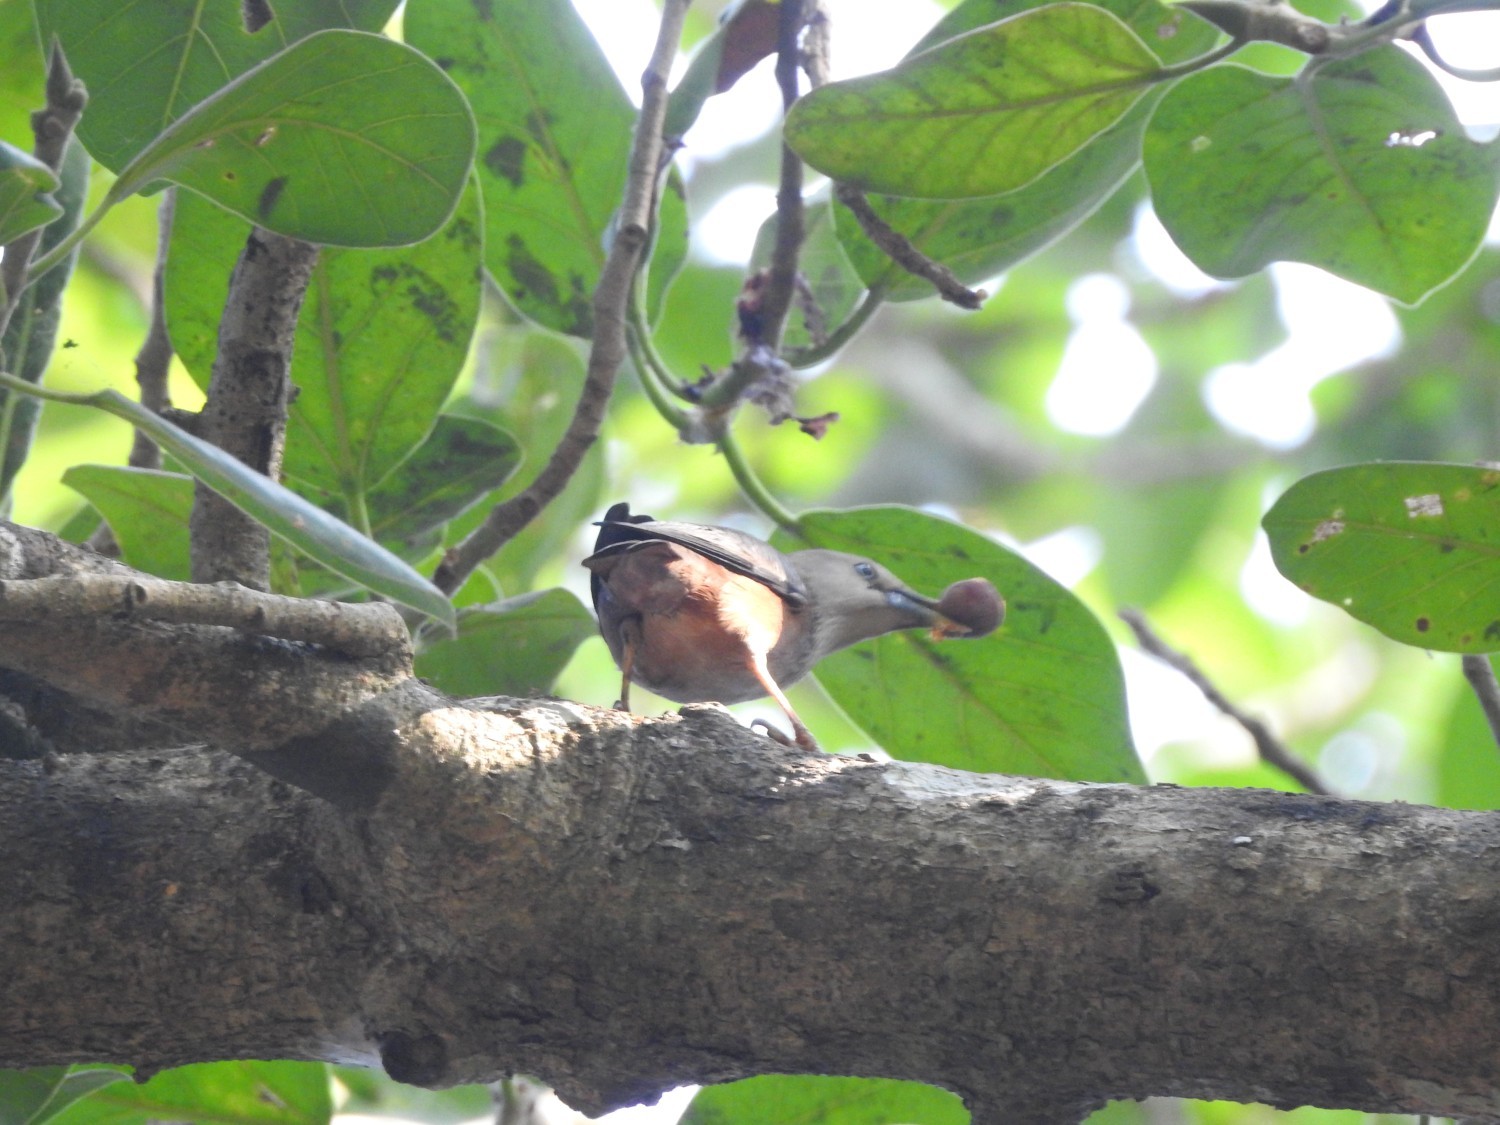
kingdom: Animalia
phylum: Chordata
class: Aves
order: Passeriformes
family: Sturnidae
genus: Sturnia
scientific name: Sturnia malabarica
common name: Chestnut-tailed starling
